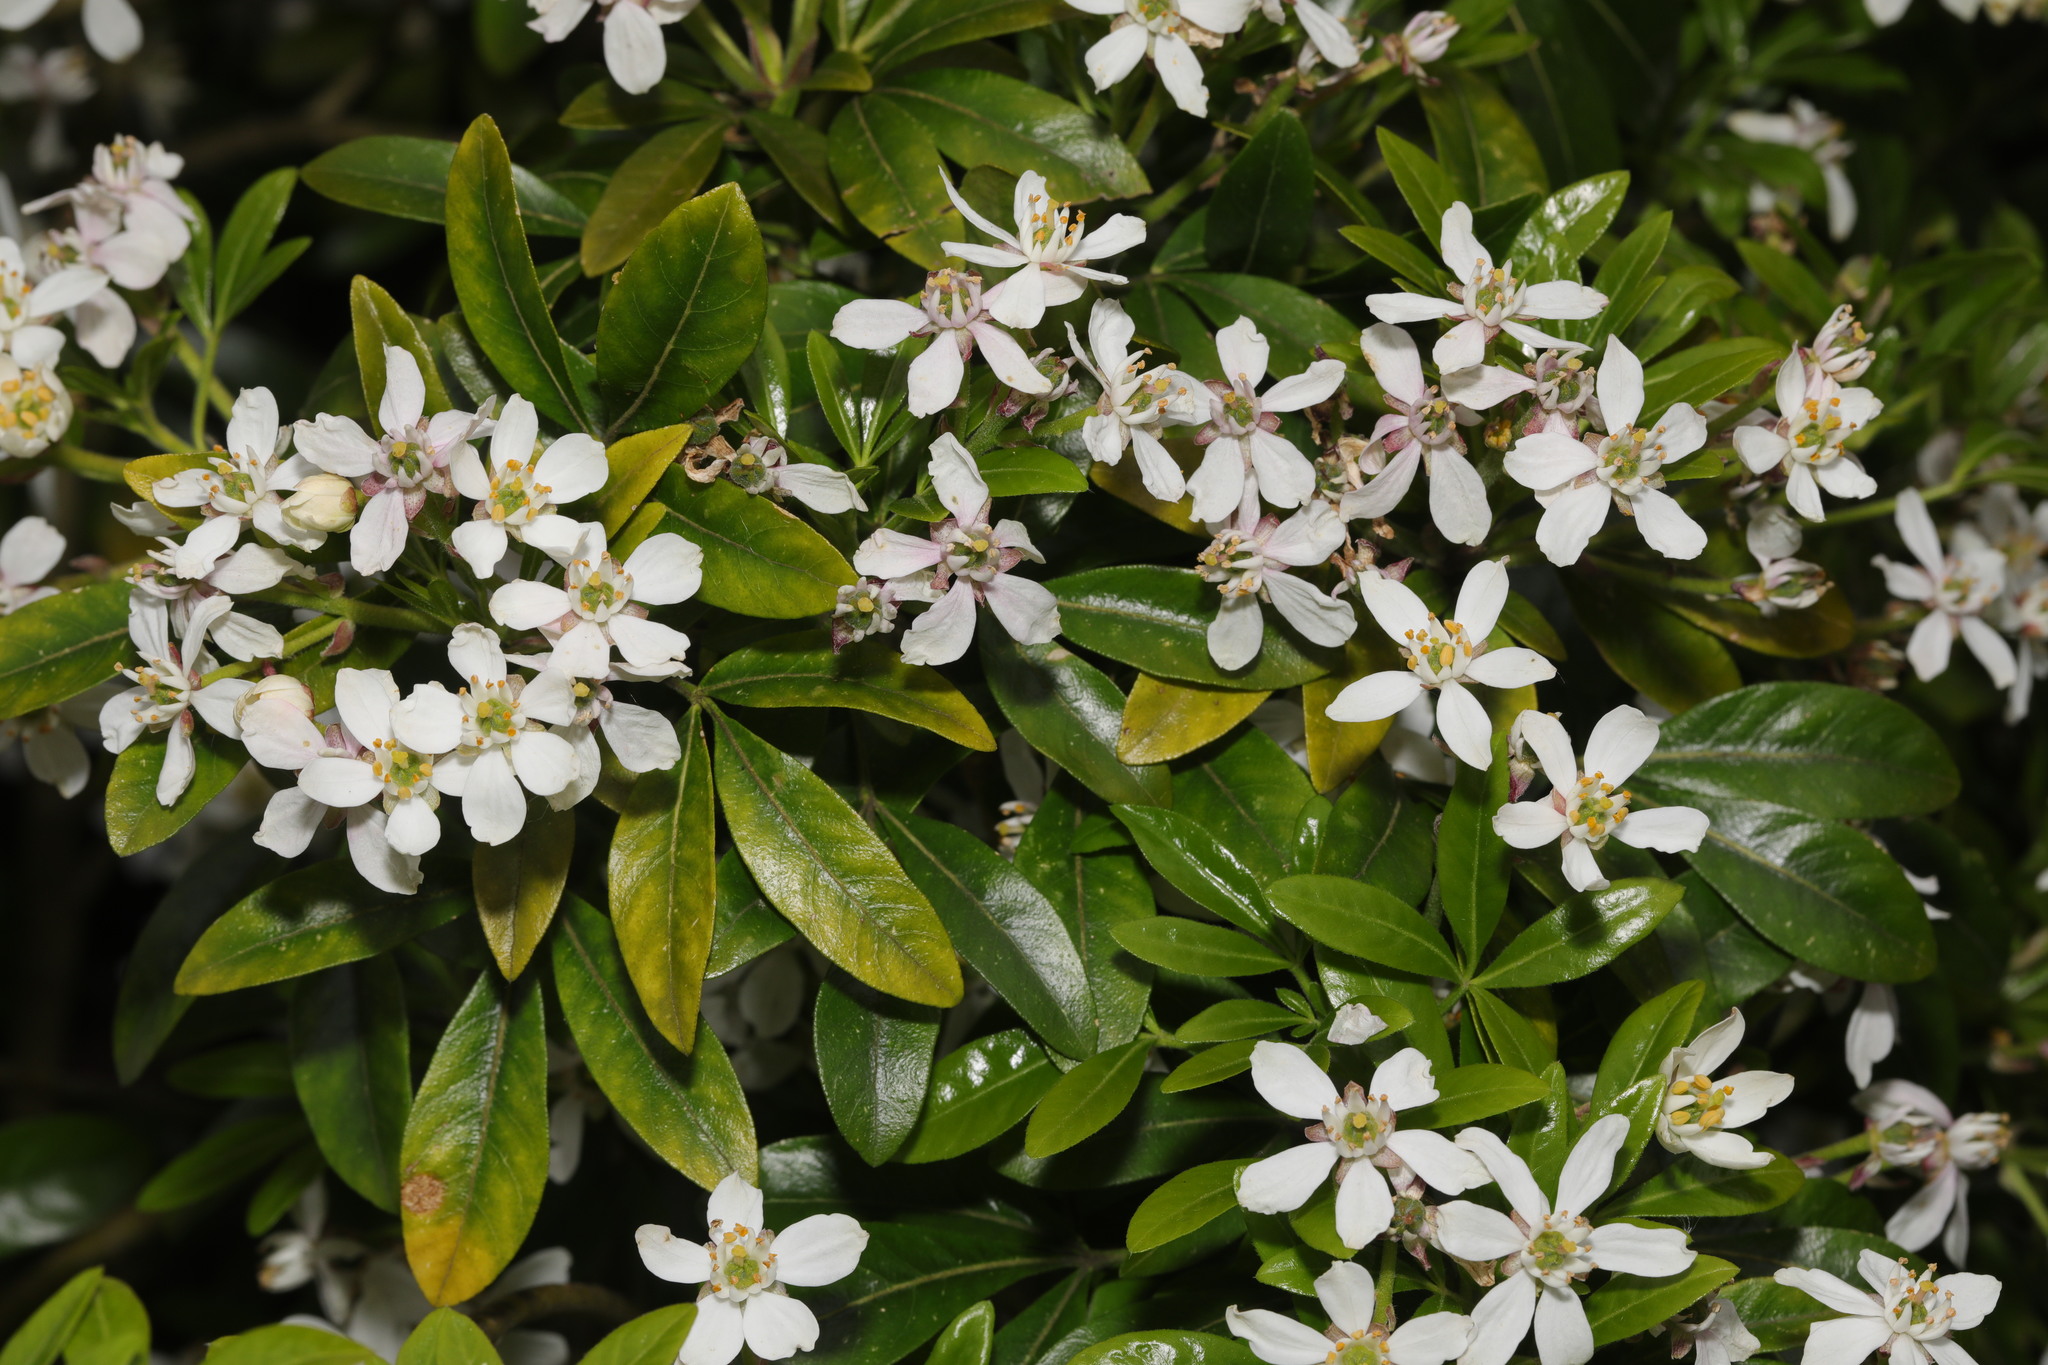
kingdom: Plantae
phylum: Tracheophyta
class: Magnoliopsida
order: Sapindales
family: Rutaceae
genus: Choisya
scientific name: Choisya ternata
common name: Mexican orange
